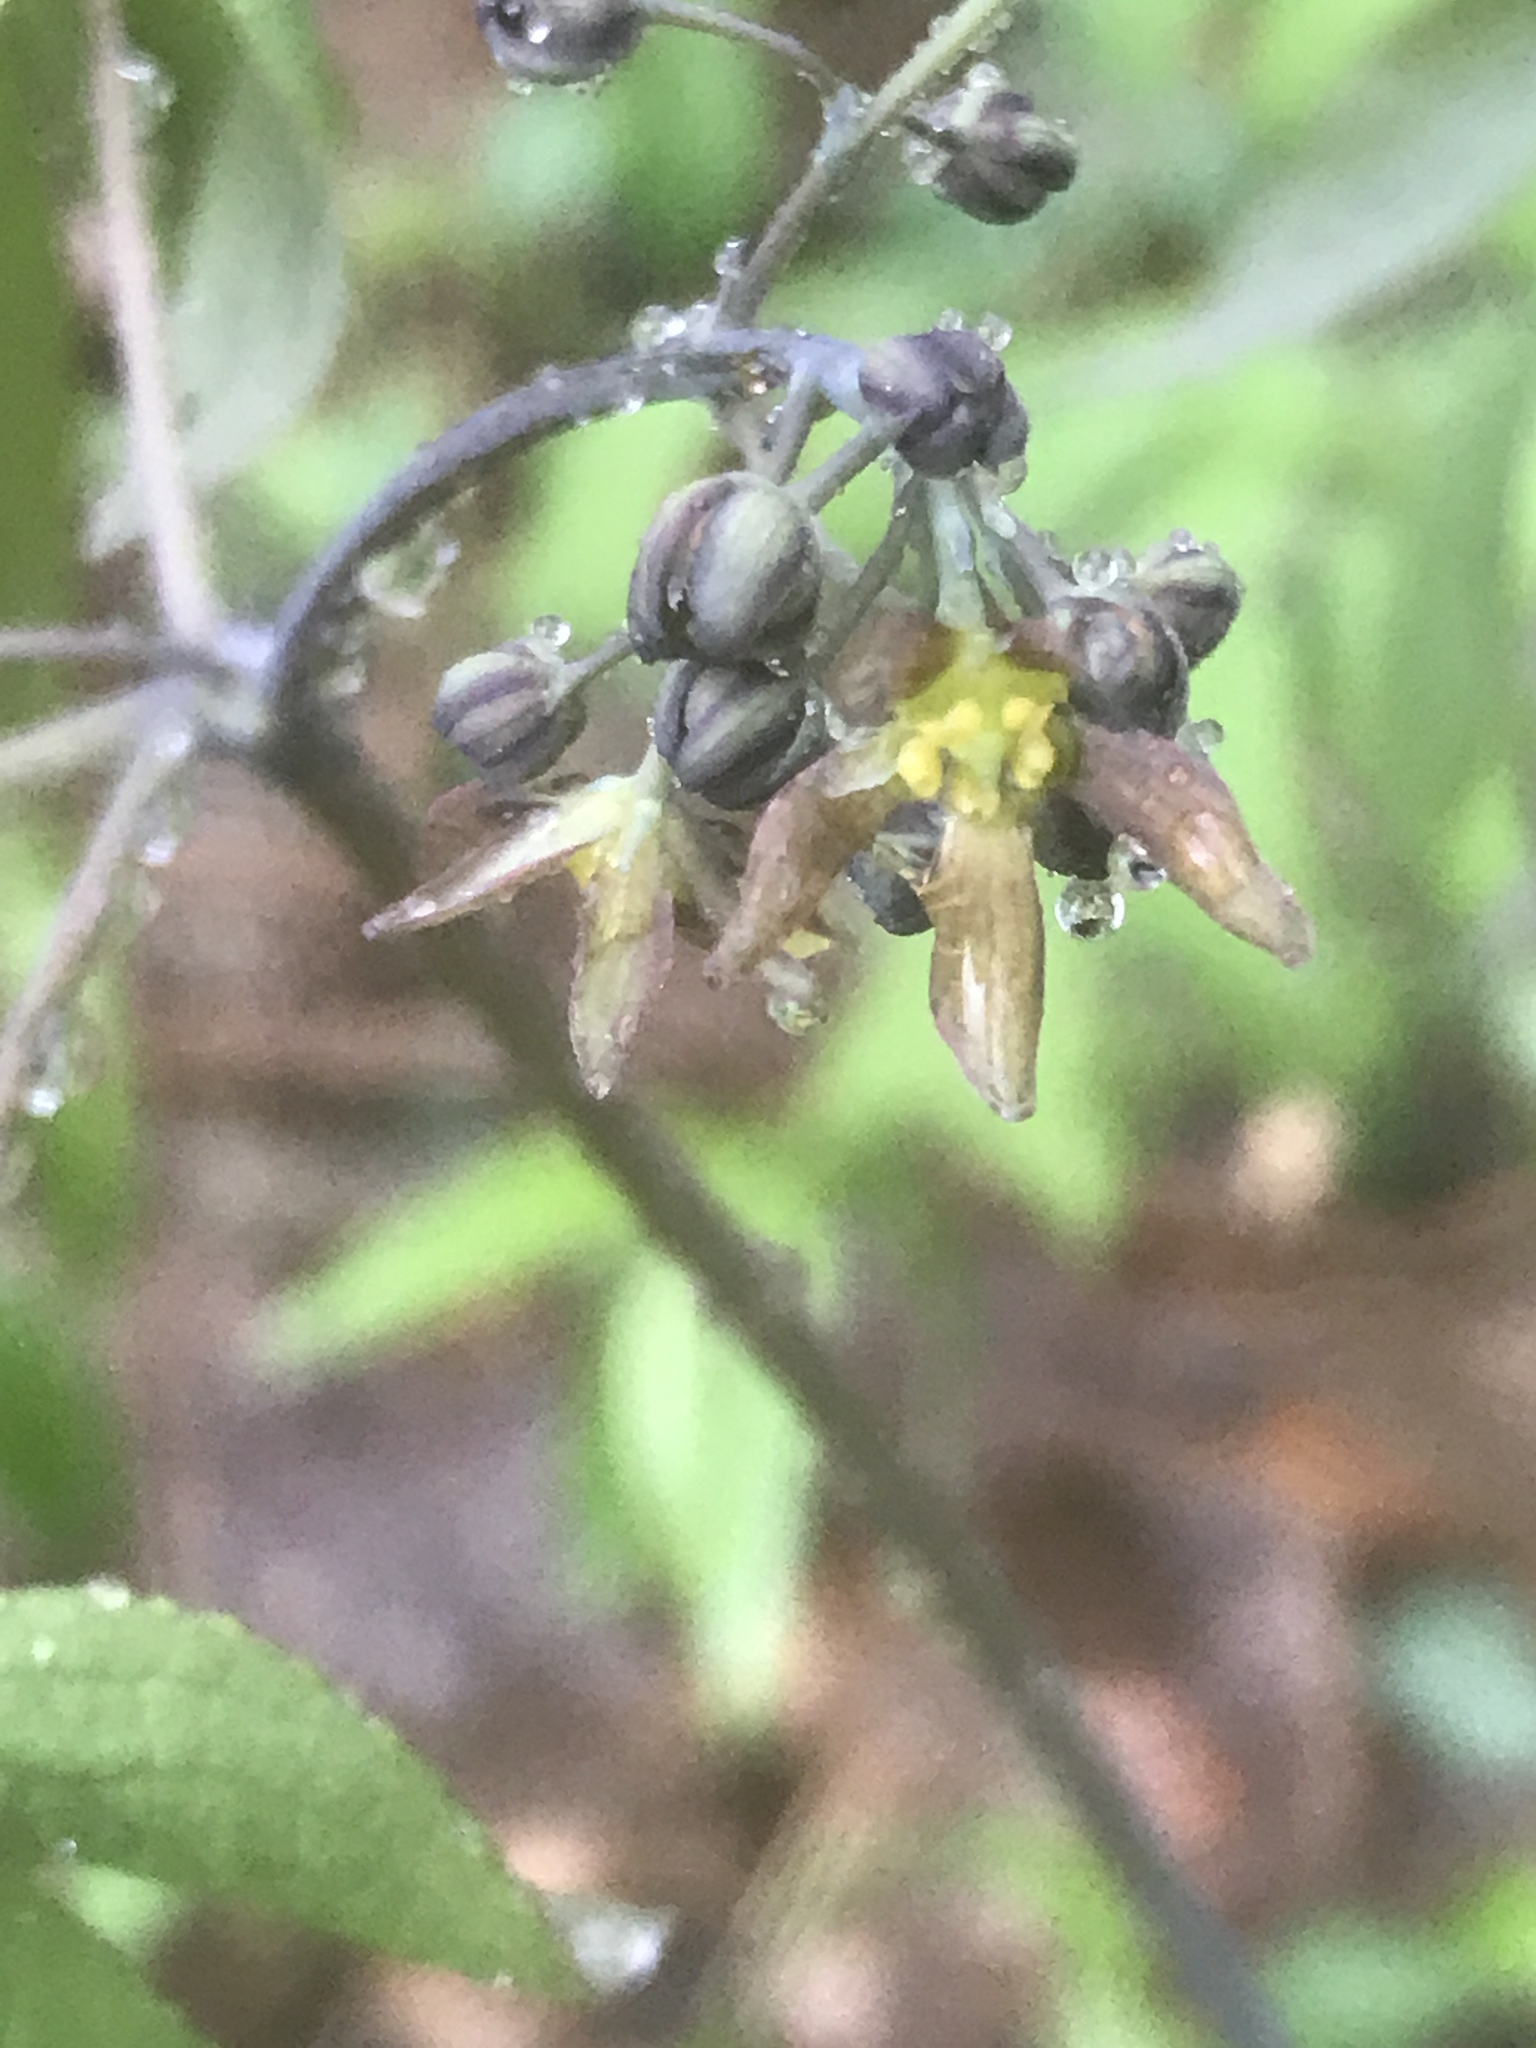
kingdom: Plantae
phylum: Tracheophyta
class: Magnoliopsida
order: Ranunculales
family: Berberidaceae
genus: Caulophyllum
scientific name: Caulophyllum thalictroides
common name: Blue cohosh
